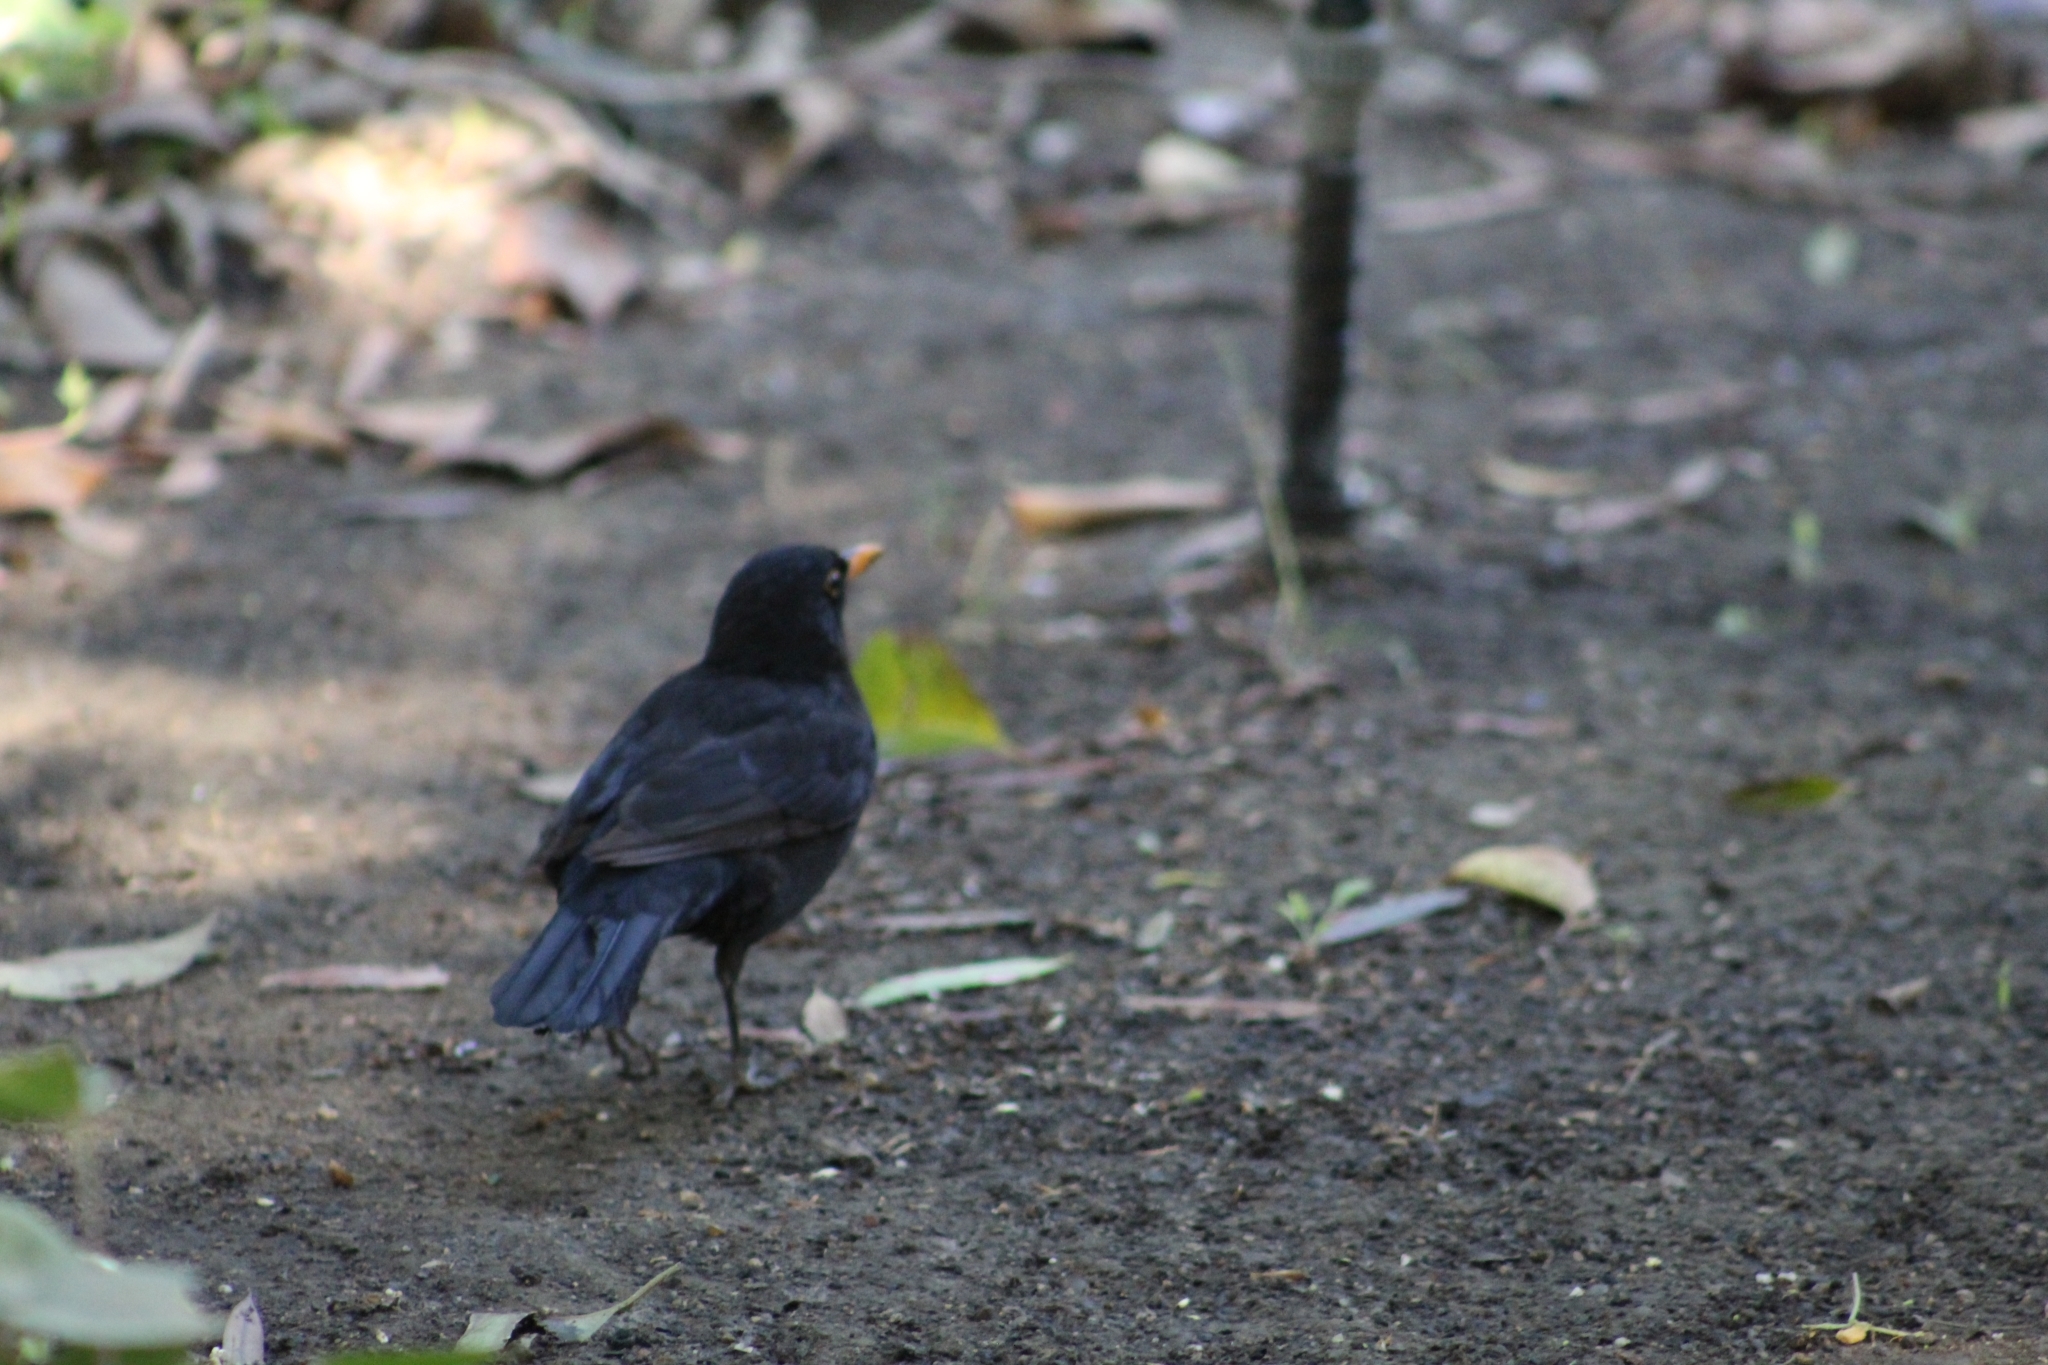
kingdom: Animalia
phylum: Chordata
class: Aves
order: Passeriformes
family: Turdidae
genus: Turdus
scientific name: Turdus merula
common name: Common blackbird
